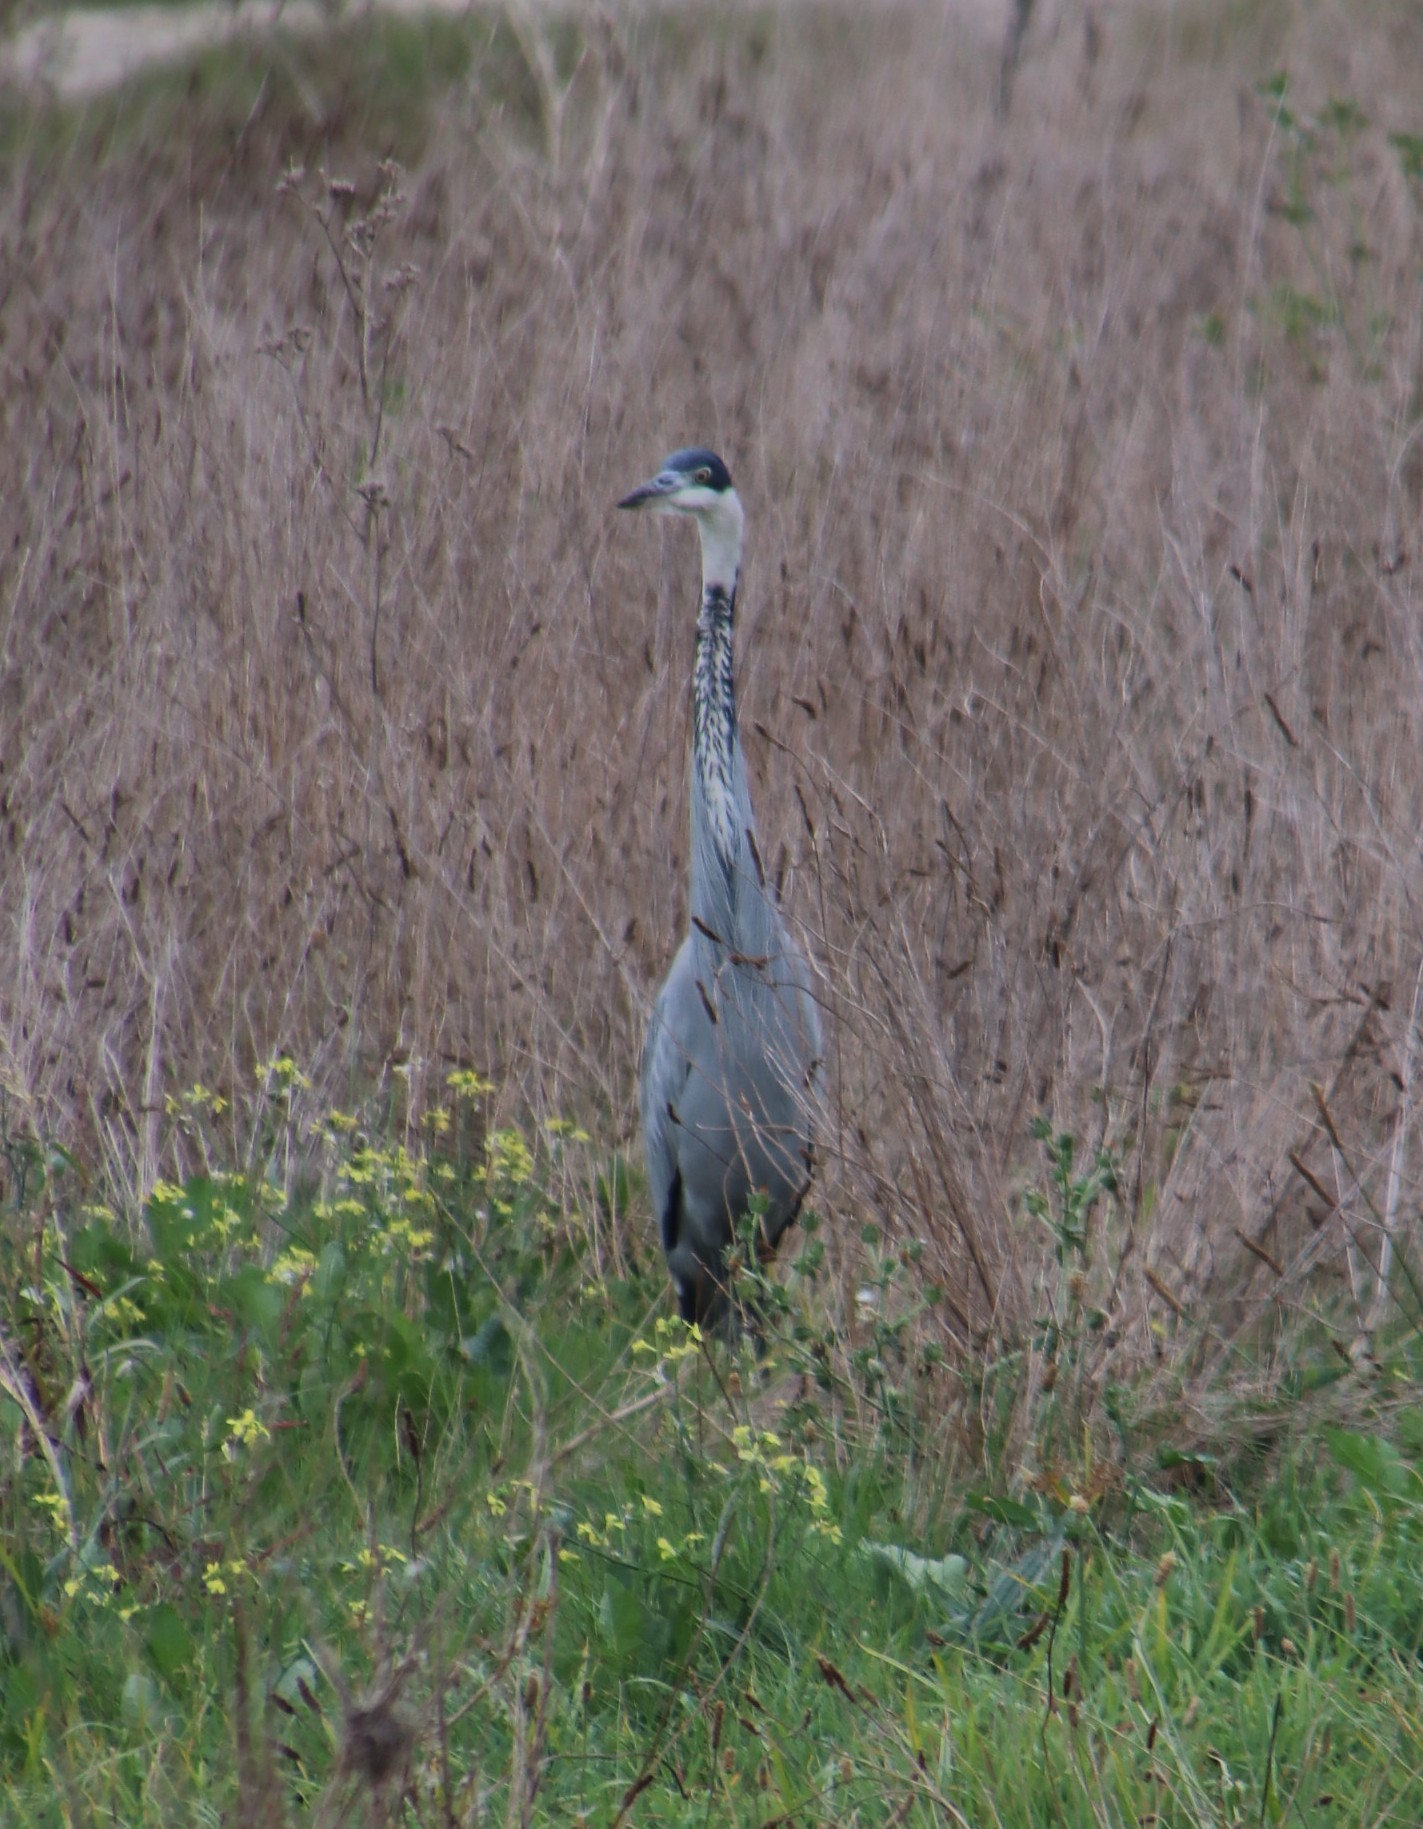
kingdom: Animalia
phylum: Chordata
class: Aves
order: Pelecaniformes
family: Ardeidae
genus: Ardea
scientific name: Ardea melanocephala
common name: Black-headed heron
